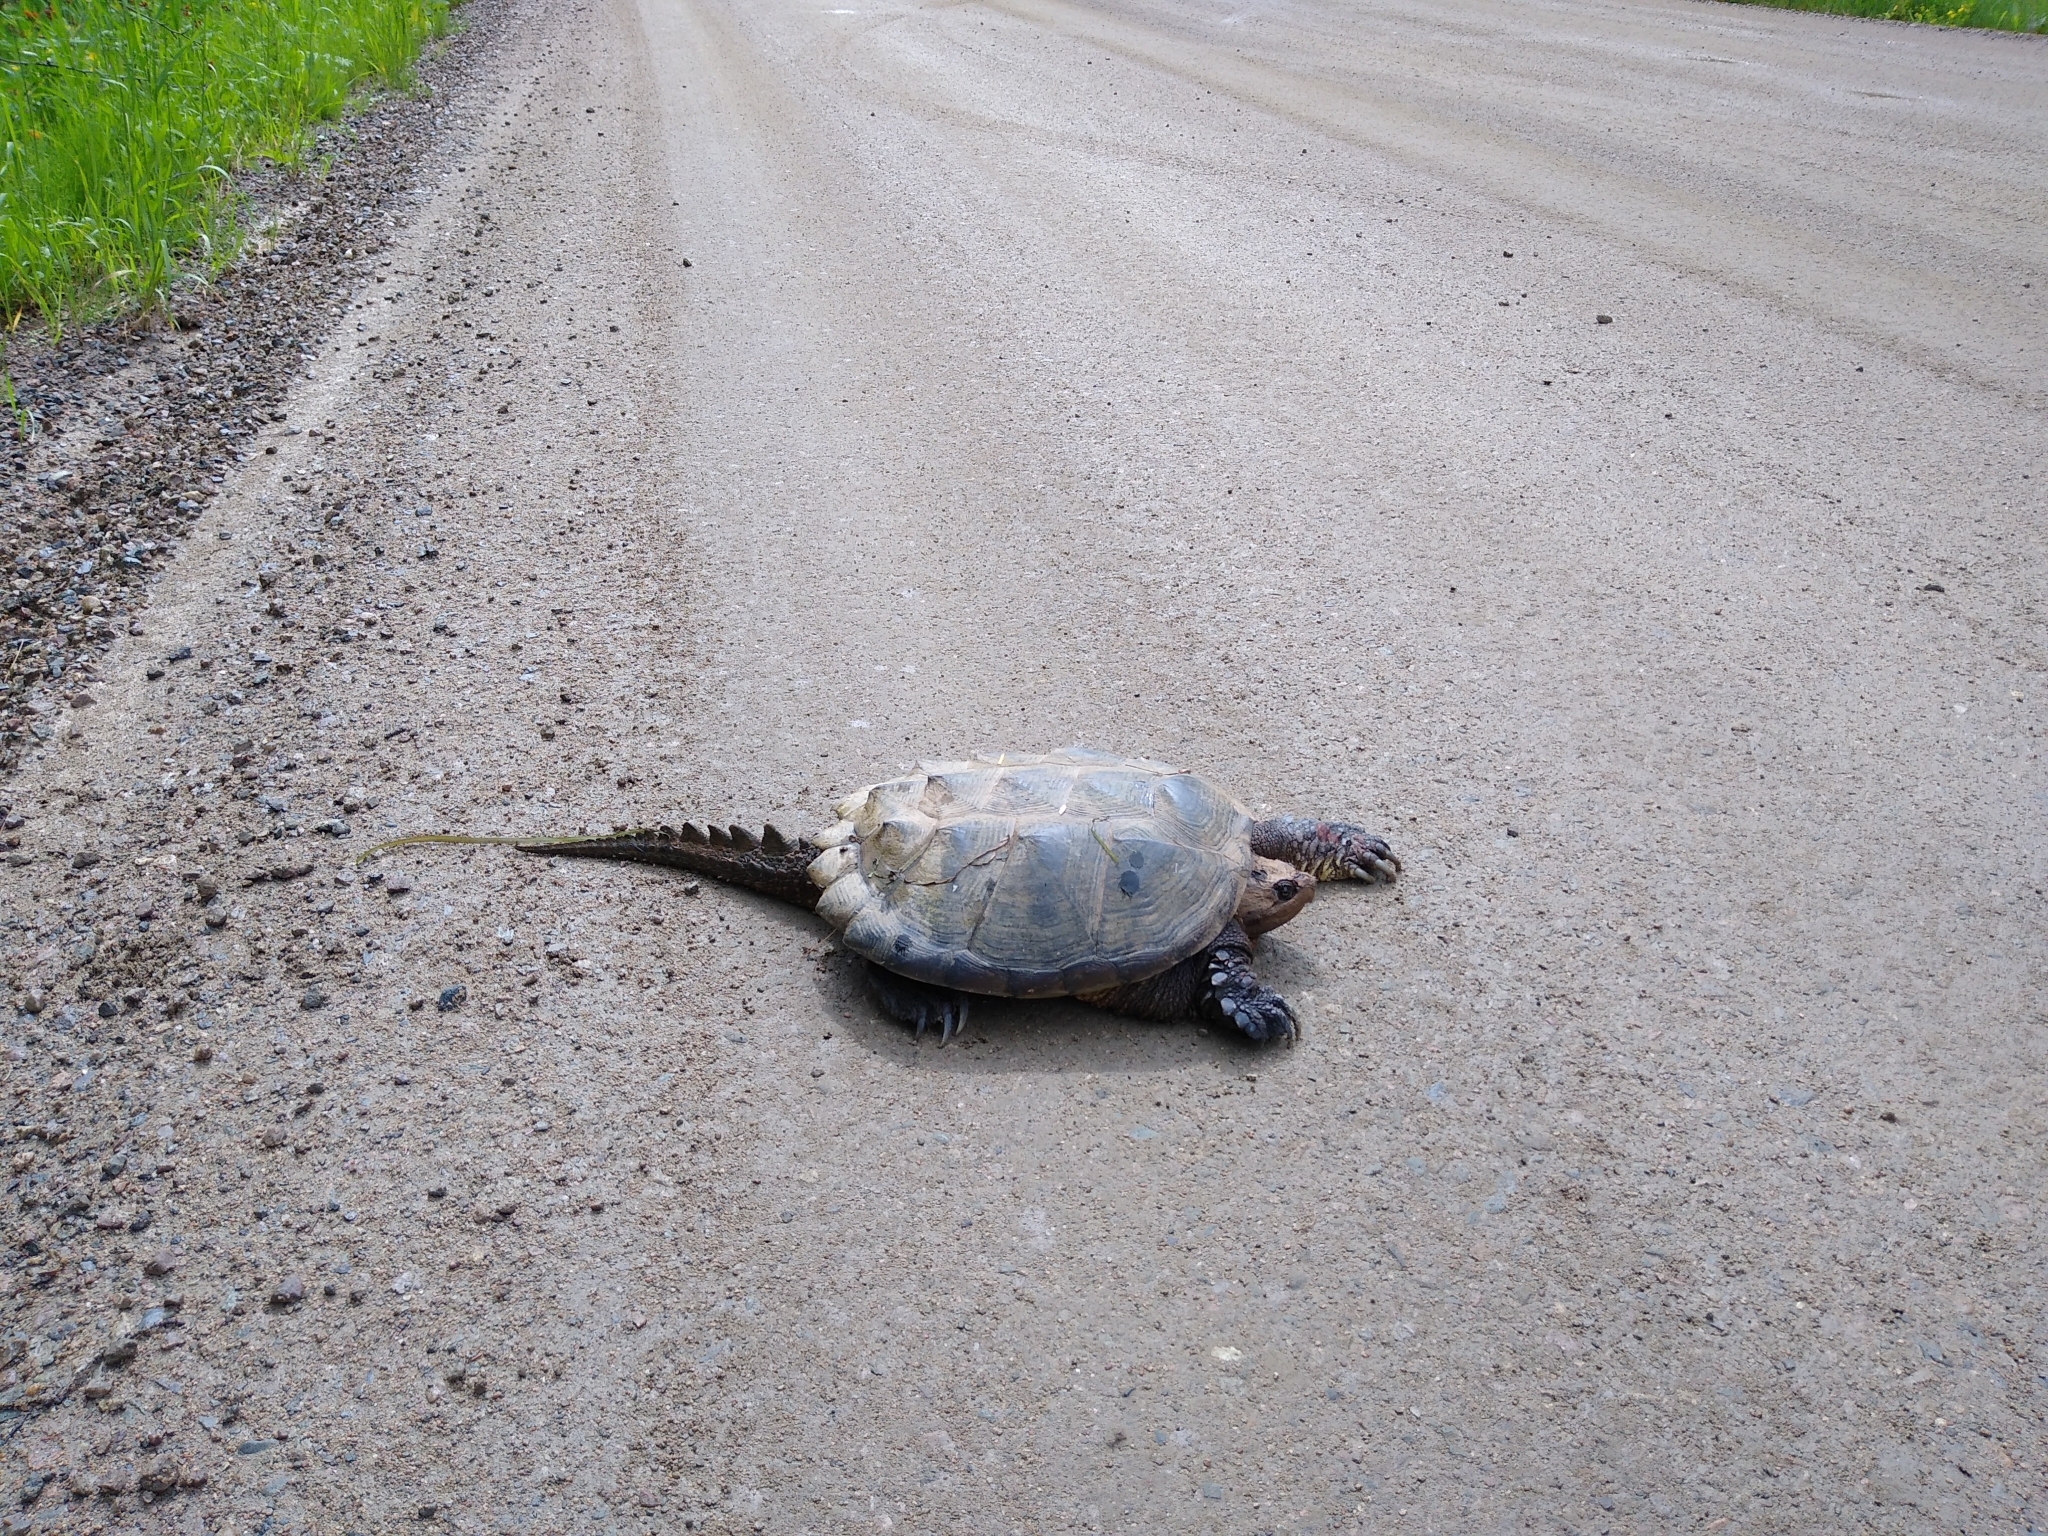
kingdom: Animalia
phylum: Chordata
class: Testudines
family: Chelydridae
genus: Chelydra
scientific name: Chelydra serpentina
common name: Common snapping turtle
